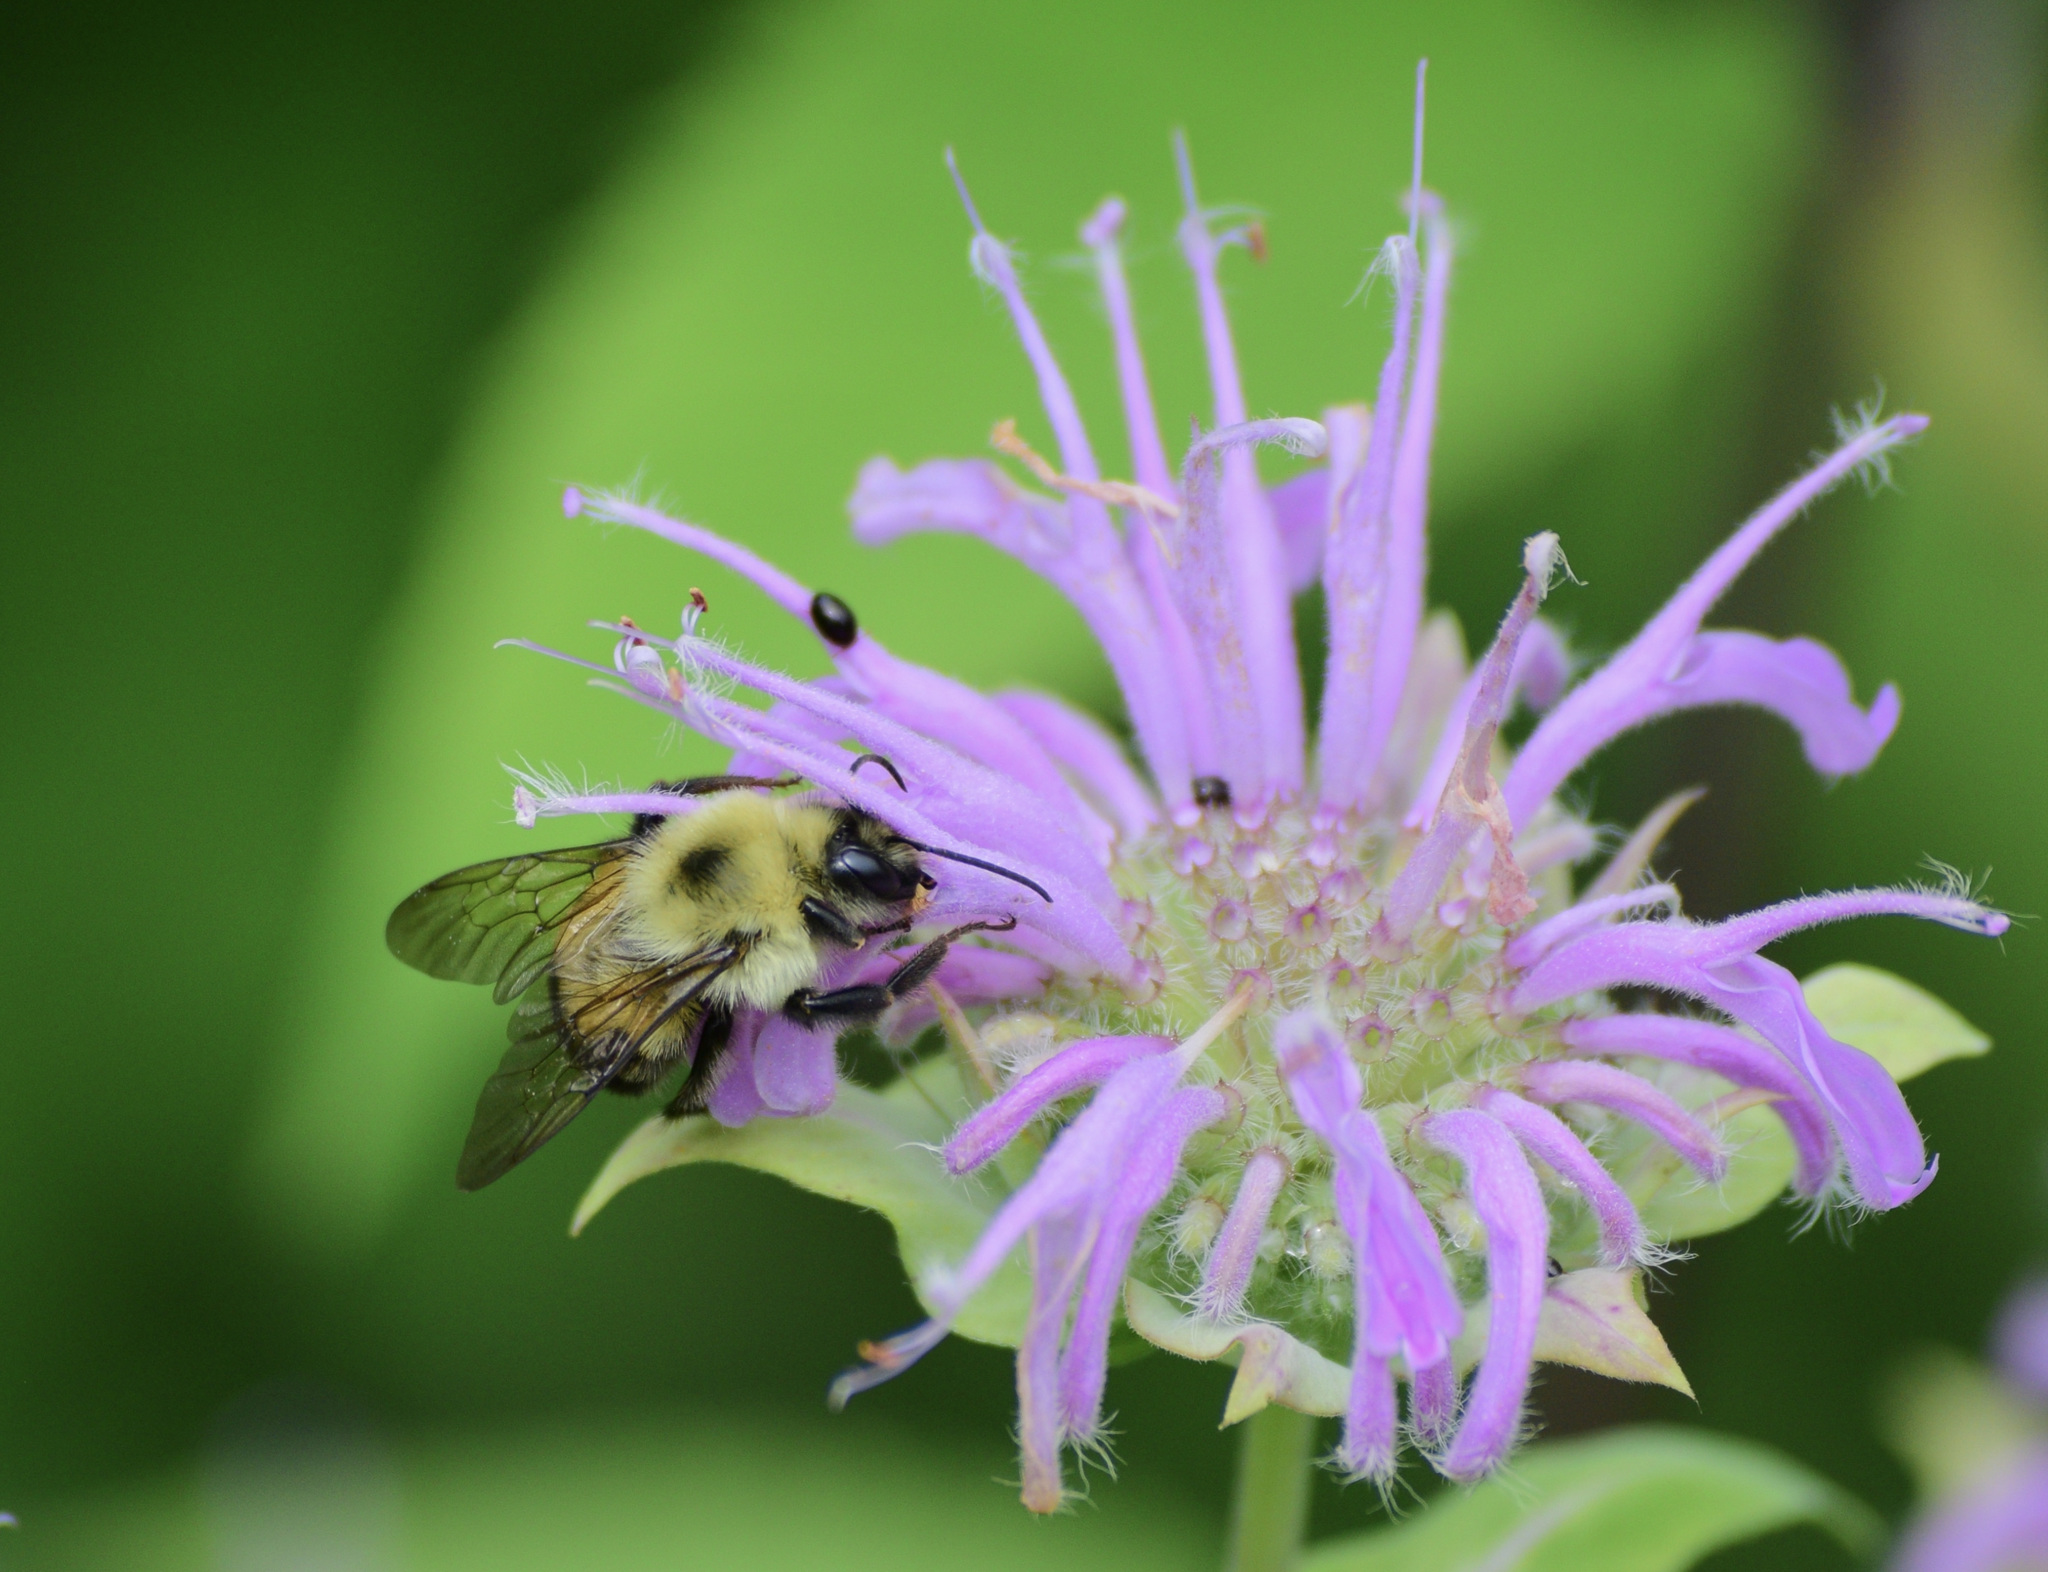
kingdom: Animalia
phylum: Arthropoda
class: Insecta
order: Hymenoptera
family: Apidae
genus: Bombus
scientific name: Bombus bimaculatus
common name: Two-spotted bumble bee
